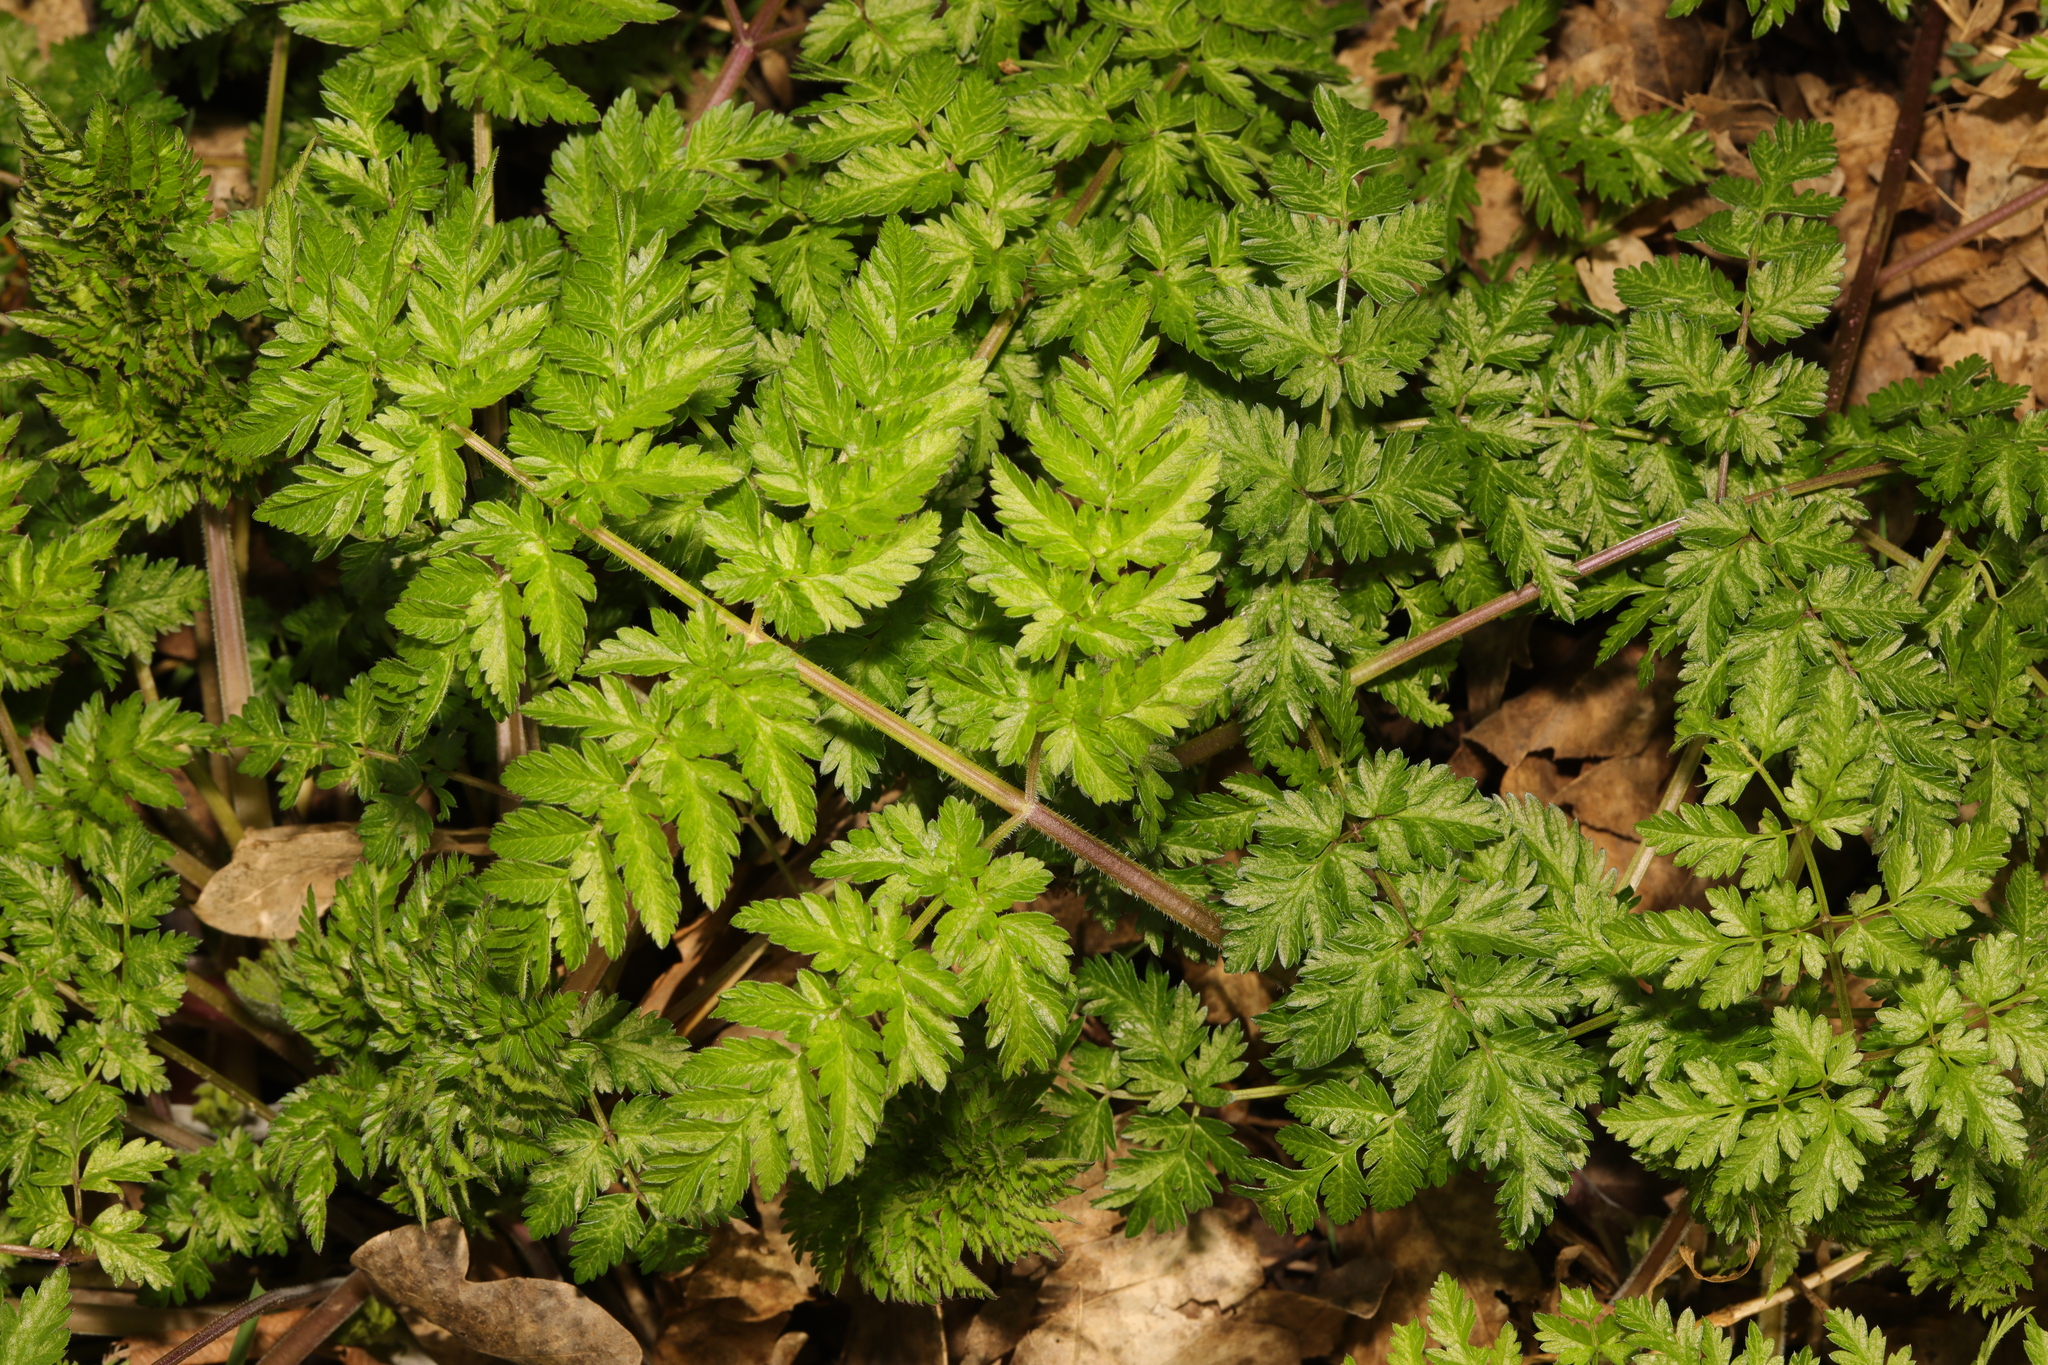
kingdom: Plantae
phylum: Tracheophyta
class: Magnoliopsida
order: Apiales
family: Apiaceae
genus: Anthriscus
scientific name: Anthriscus sylvestris
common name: Cow parsley
